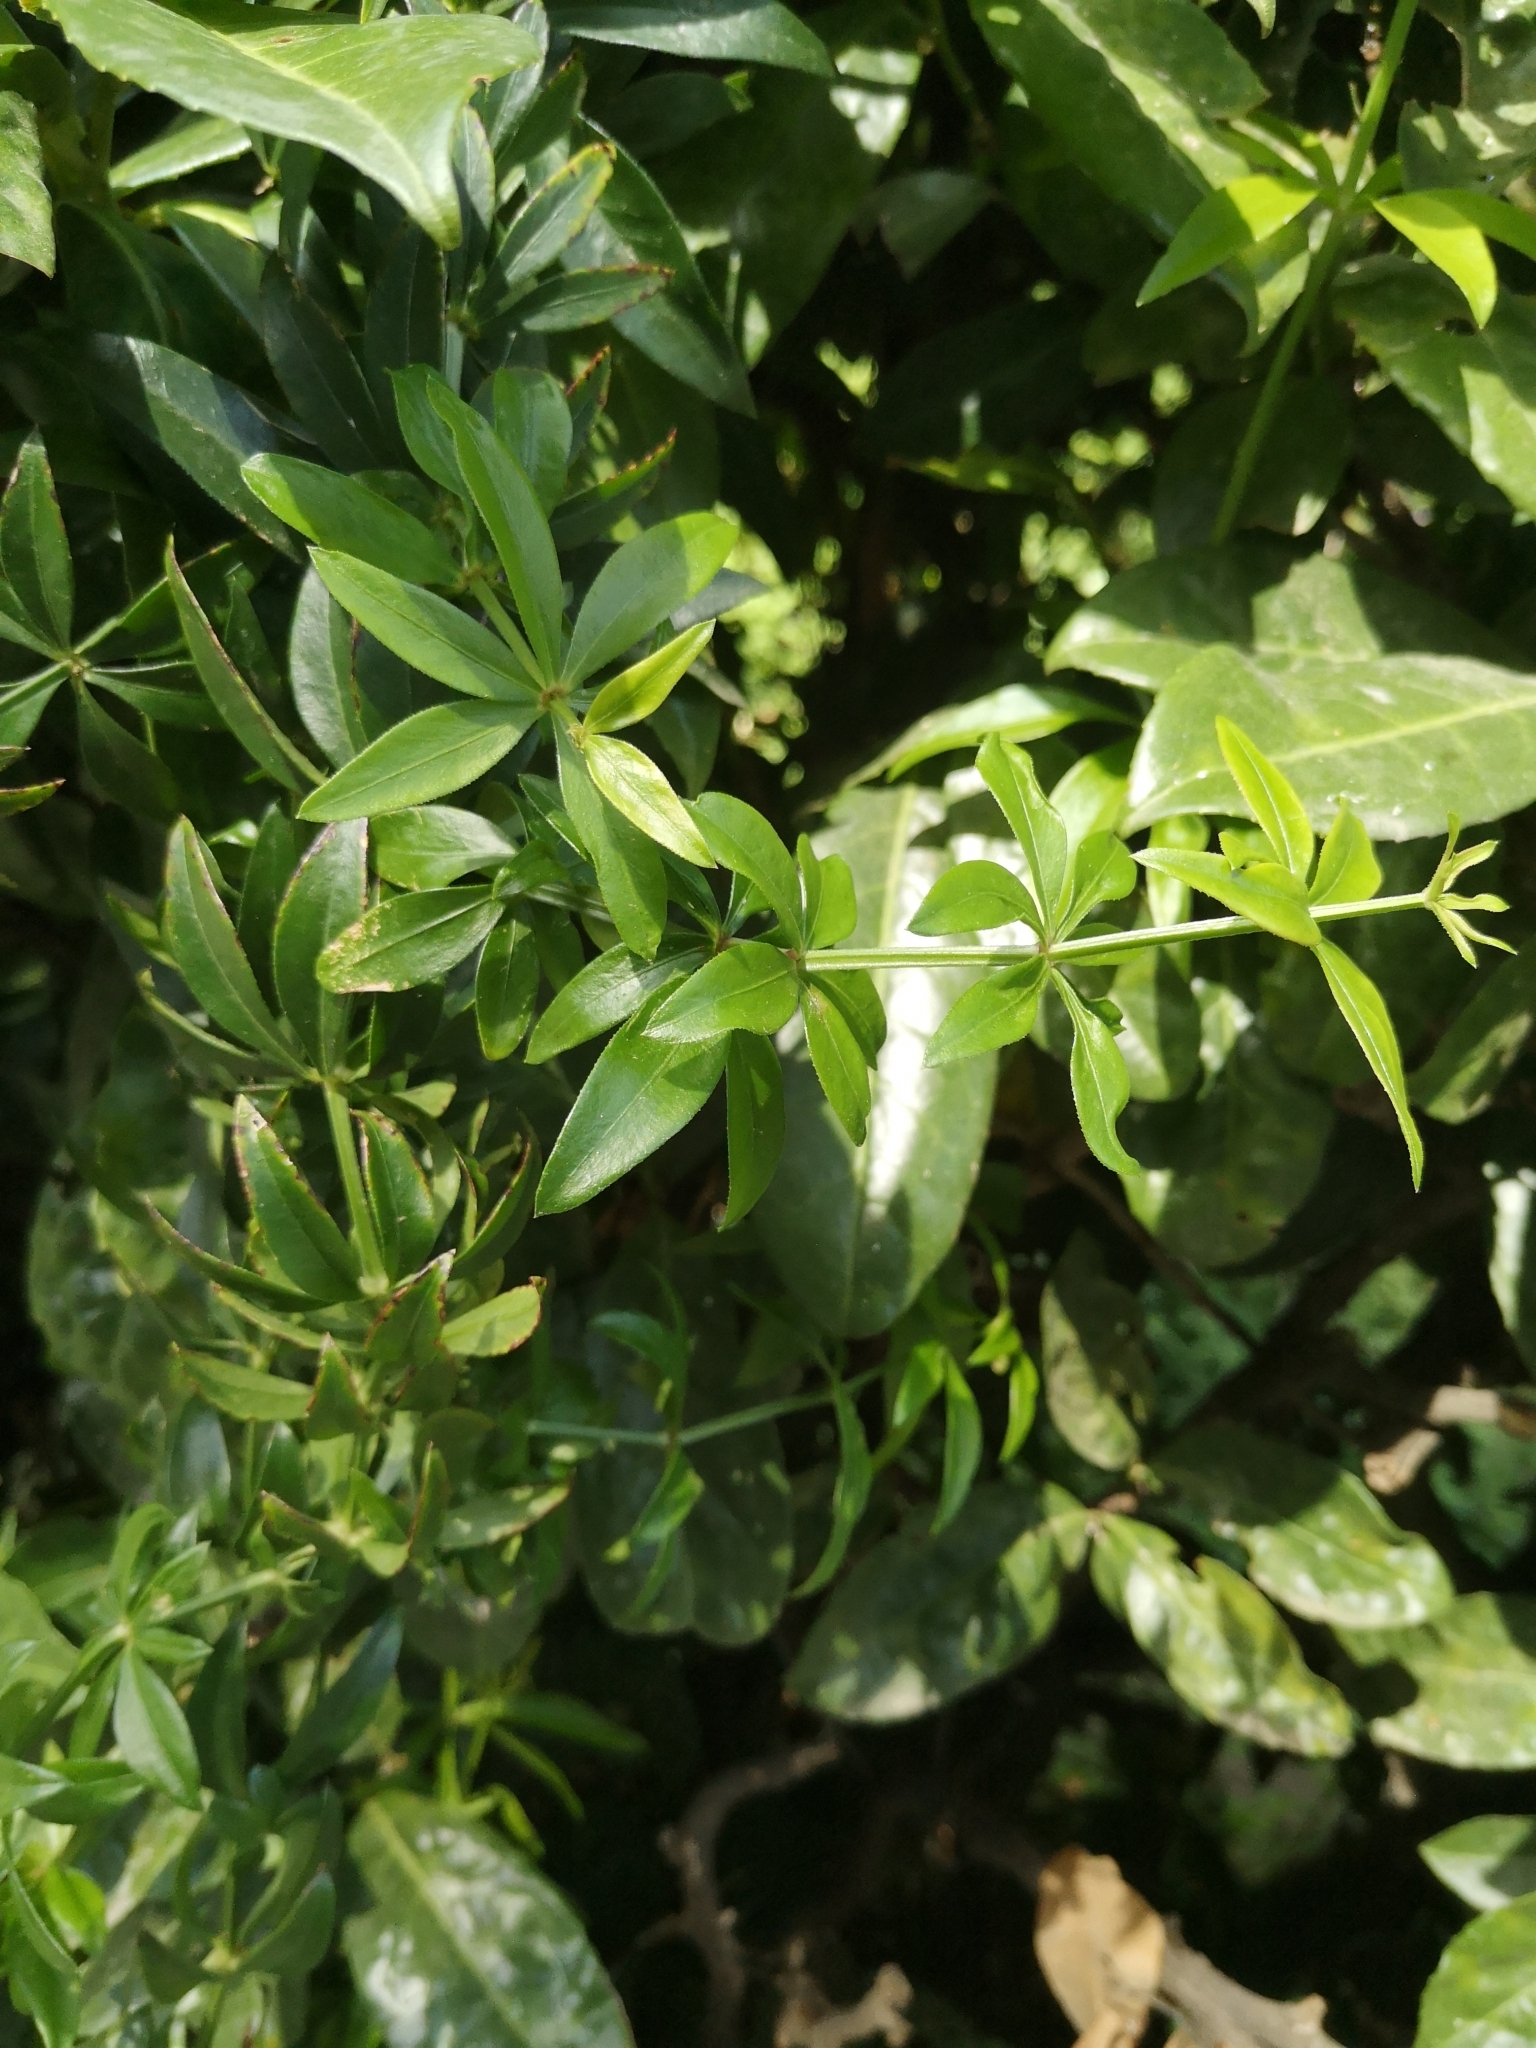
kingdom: Plantae
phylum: Tracheophyta
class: Magnoliopsida
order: Gentianales
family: Rubiaceae
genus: Rubia
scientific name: Rubia peregrina
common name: Wild madder
